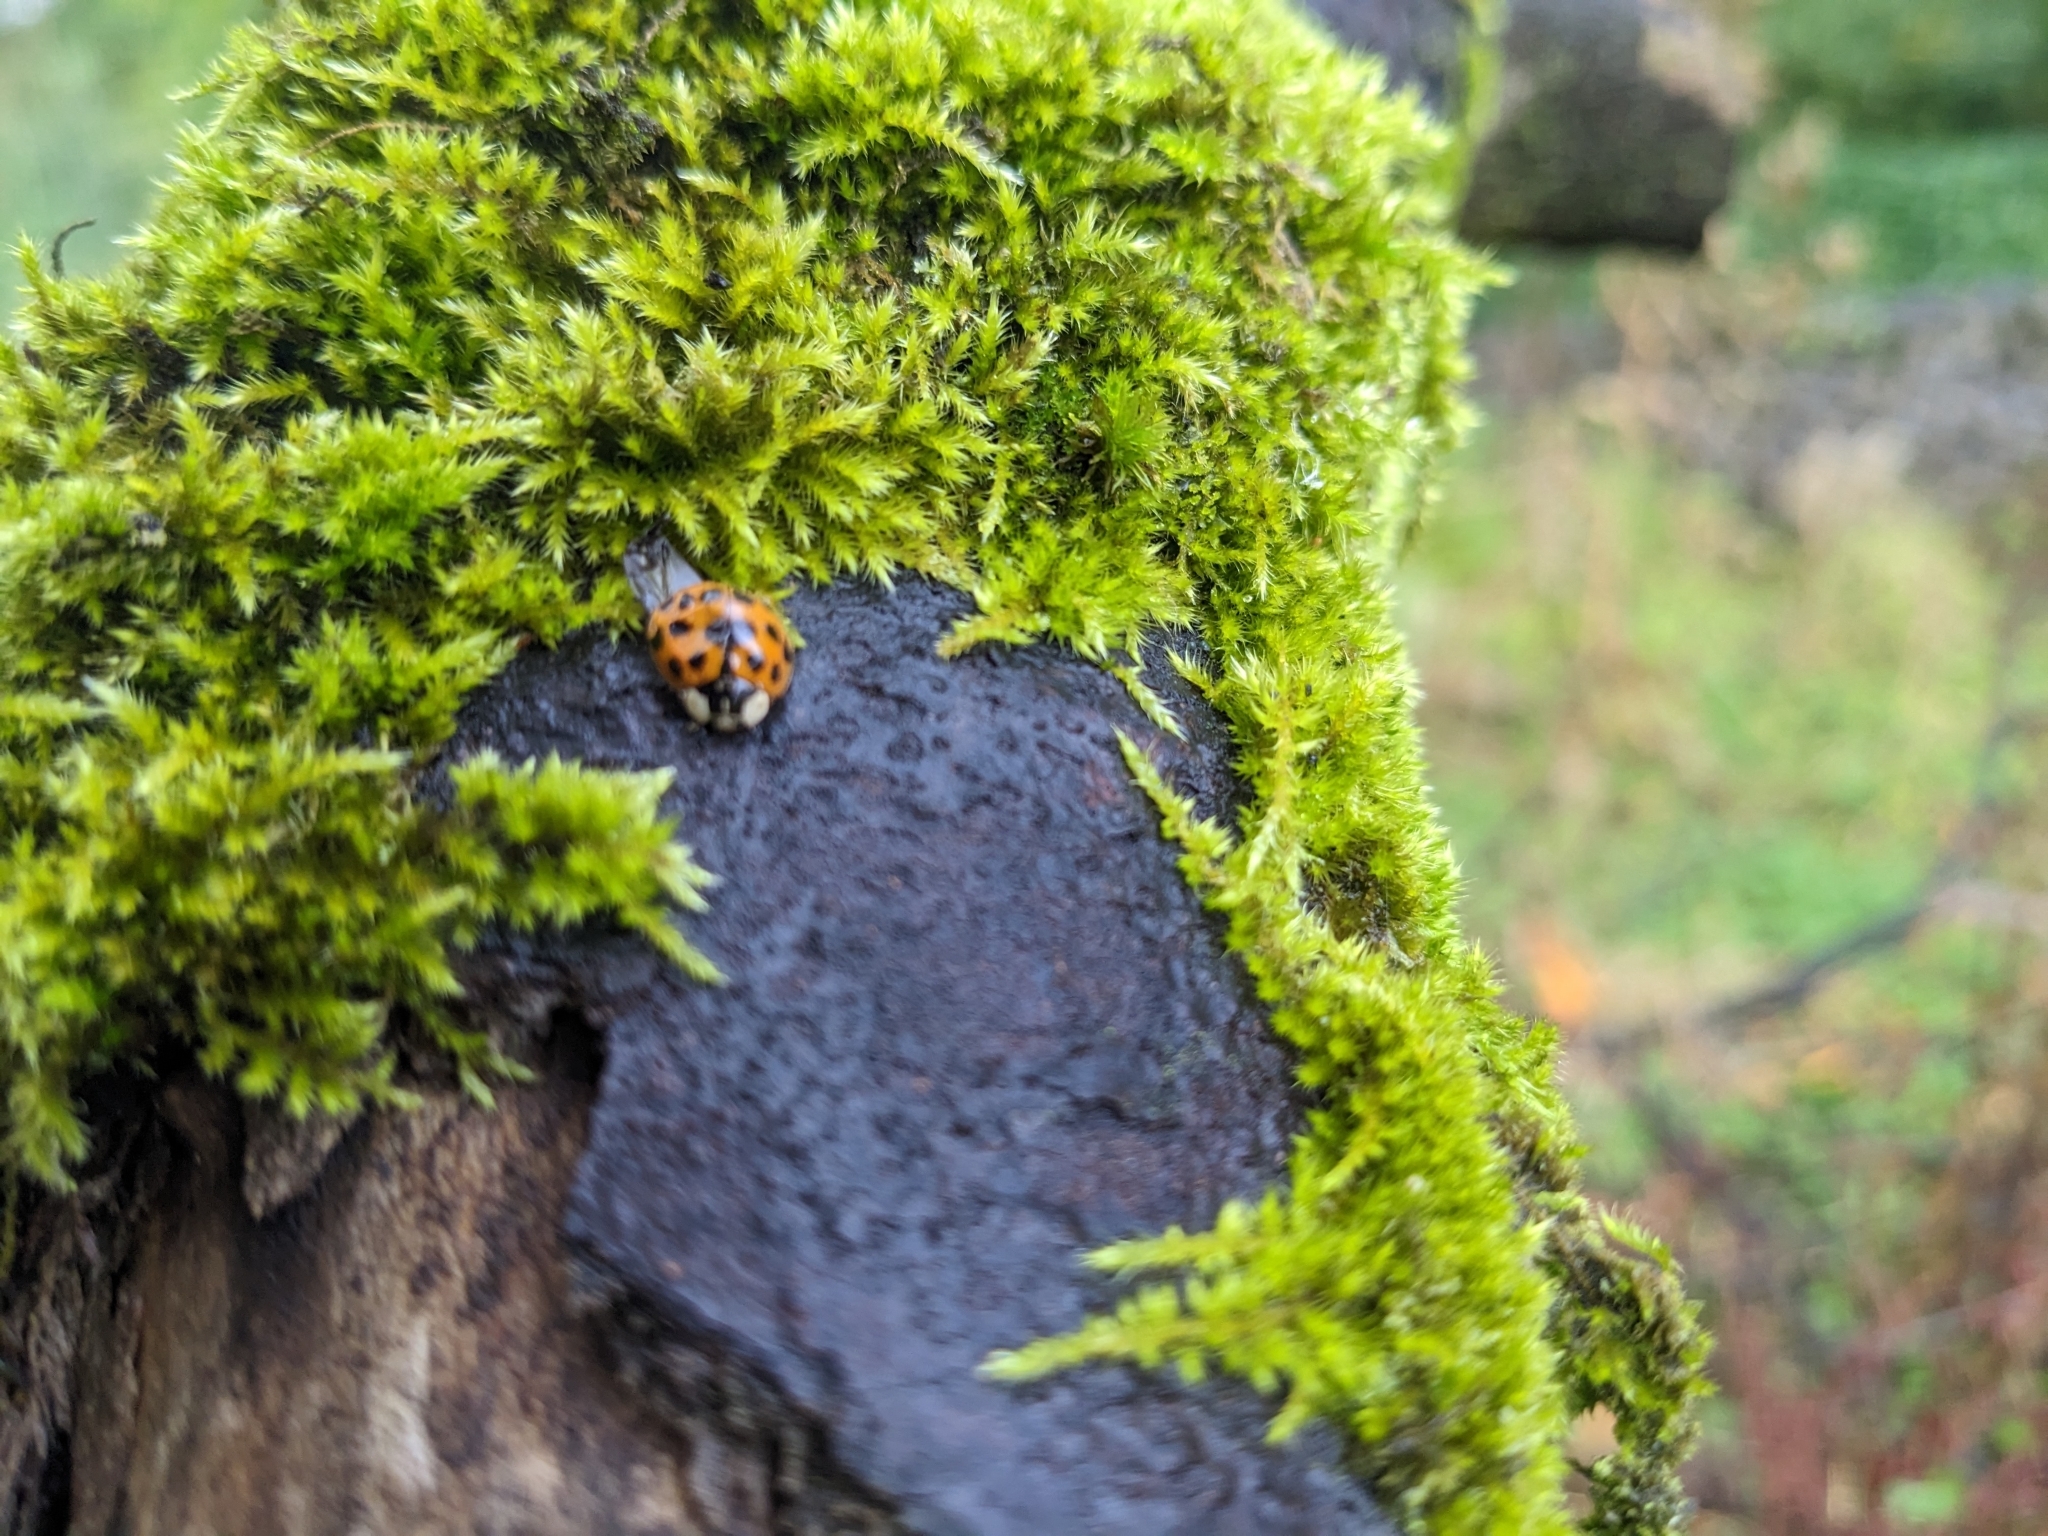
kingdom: Animalia
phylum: Arthropoda
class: Insecta
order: Coleoptera
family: Coccinellidae
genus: Harmonia
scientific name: Harmonia axyridis
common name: Harlequin ladybird
